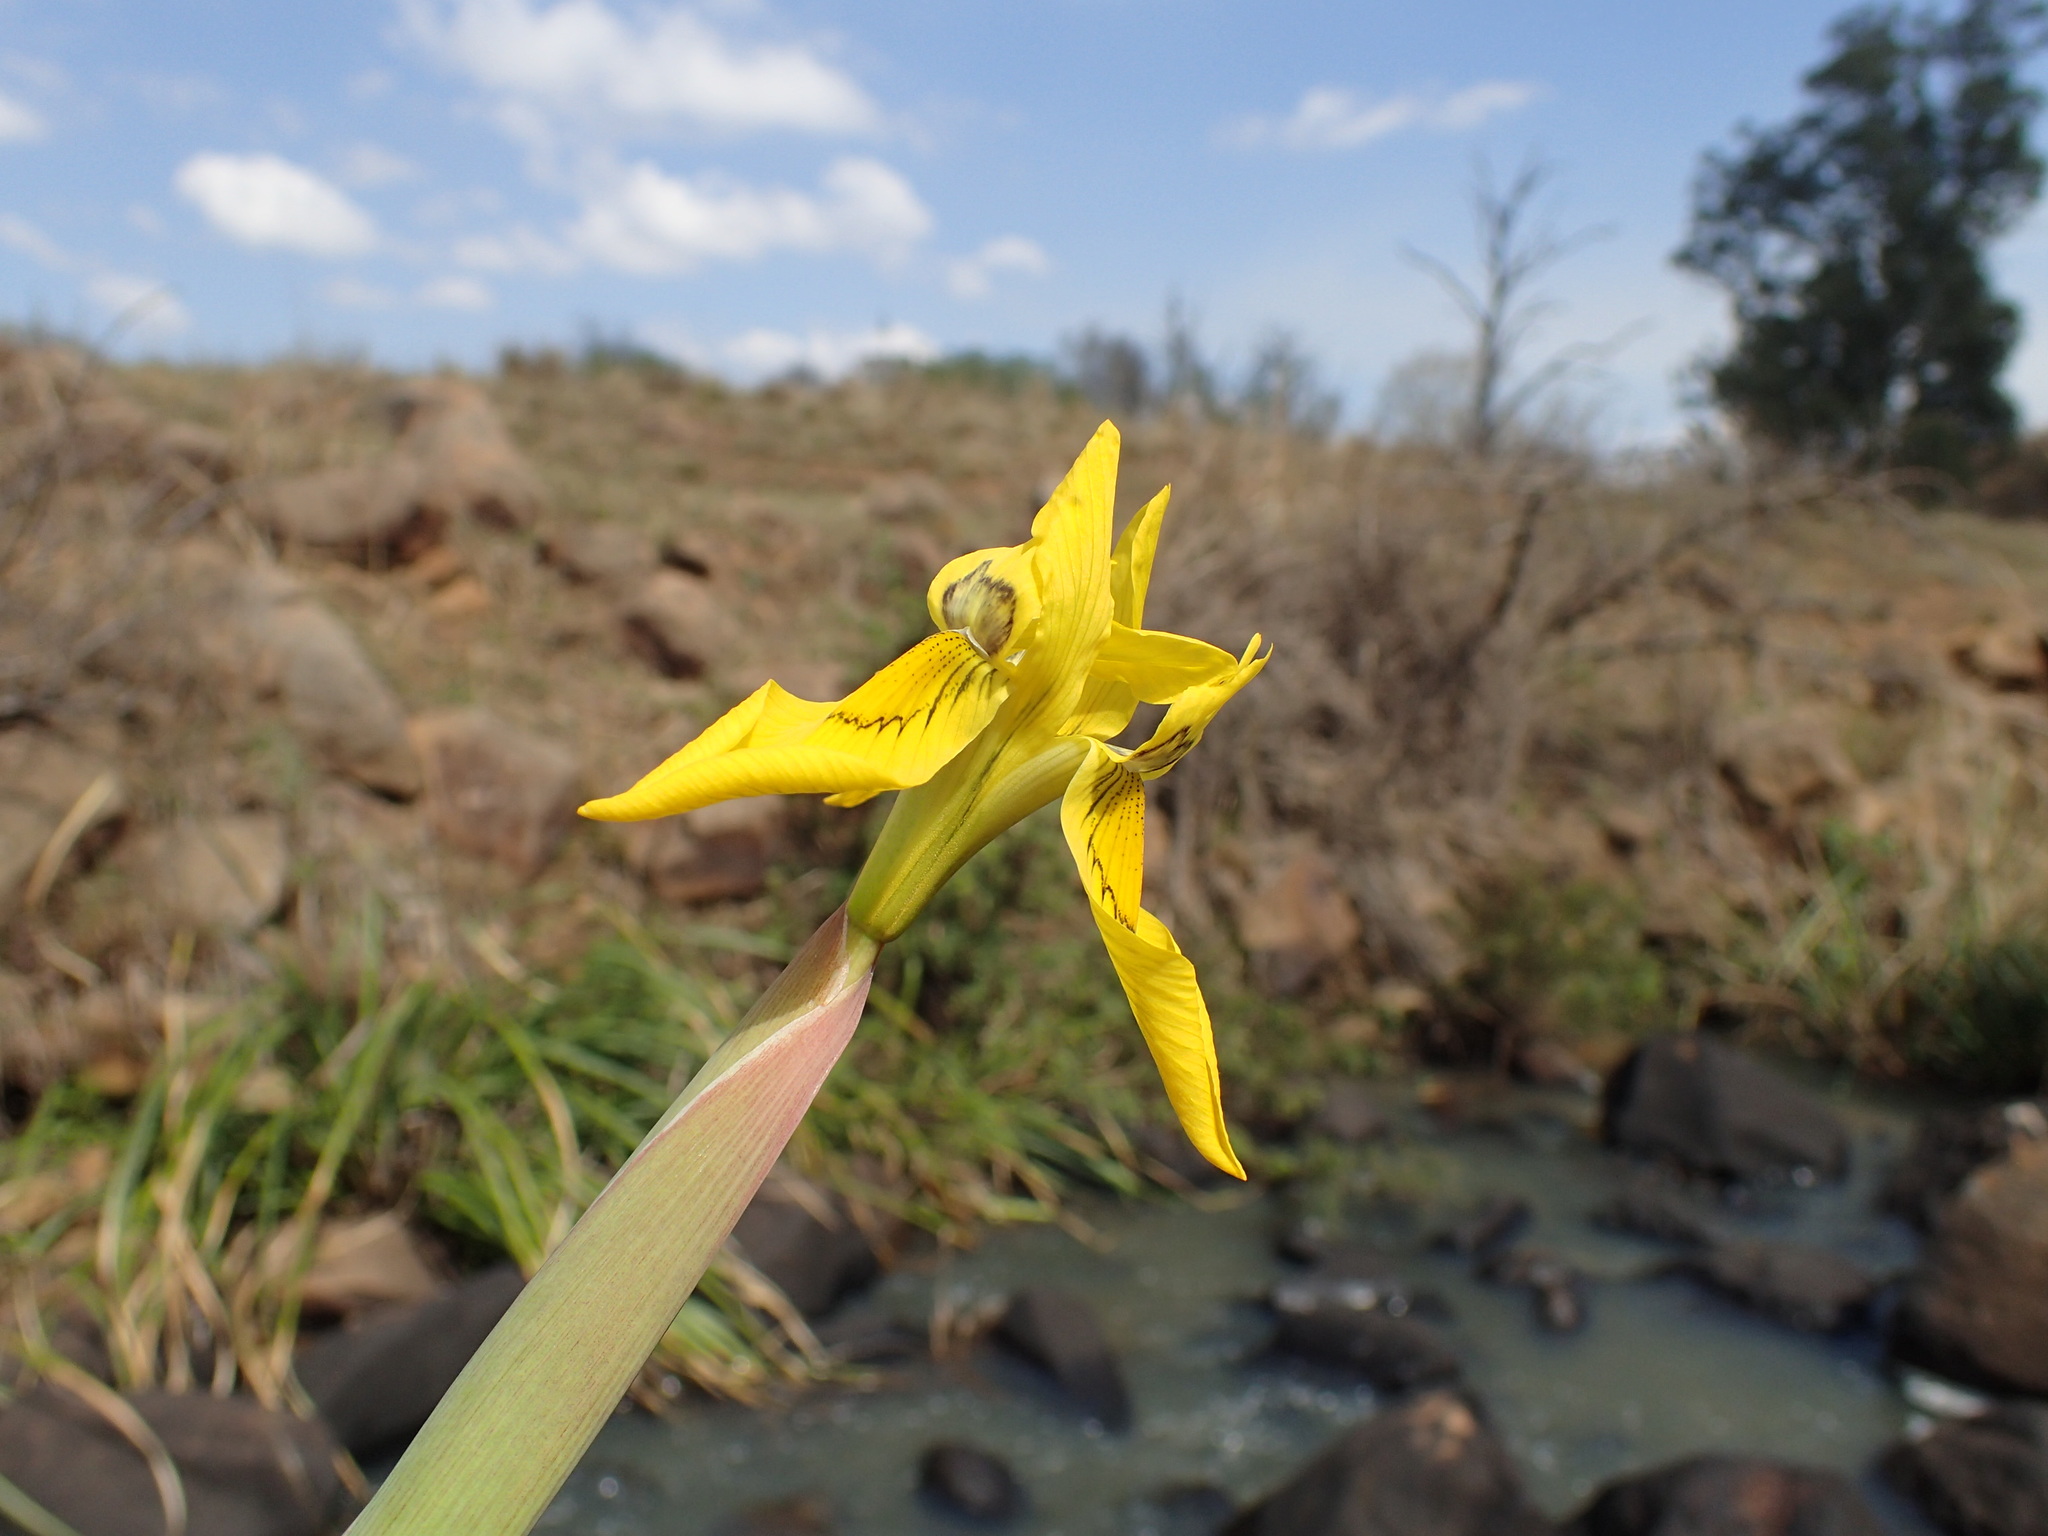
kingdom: Plantae
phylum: Tracheophyta
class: Liliopsida
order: Asparagales
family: Iridaceae
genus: Moraea
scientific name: Moraea huttonii
